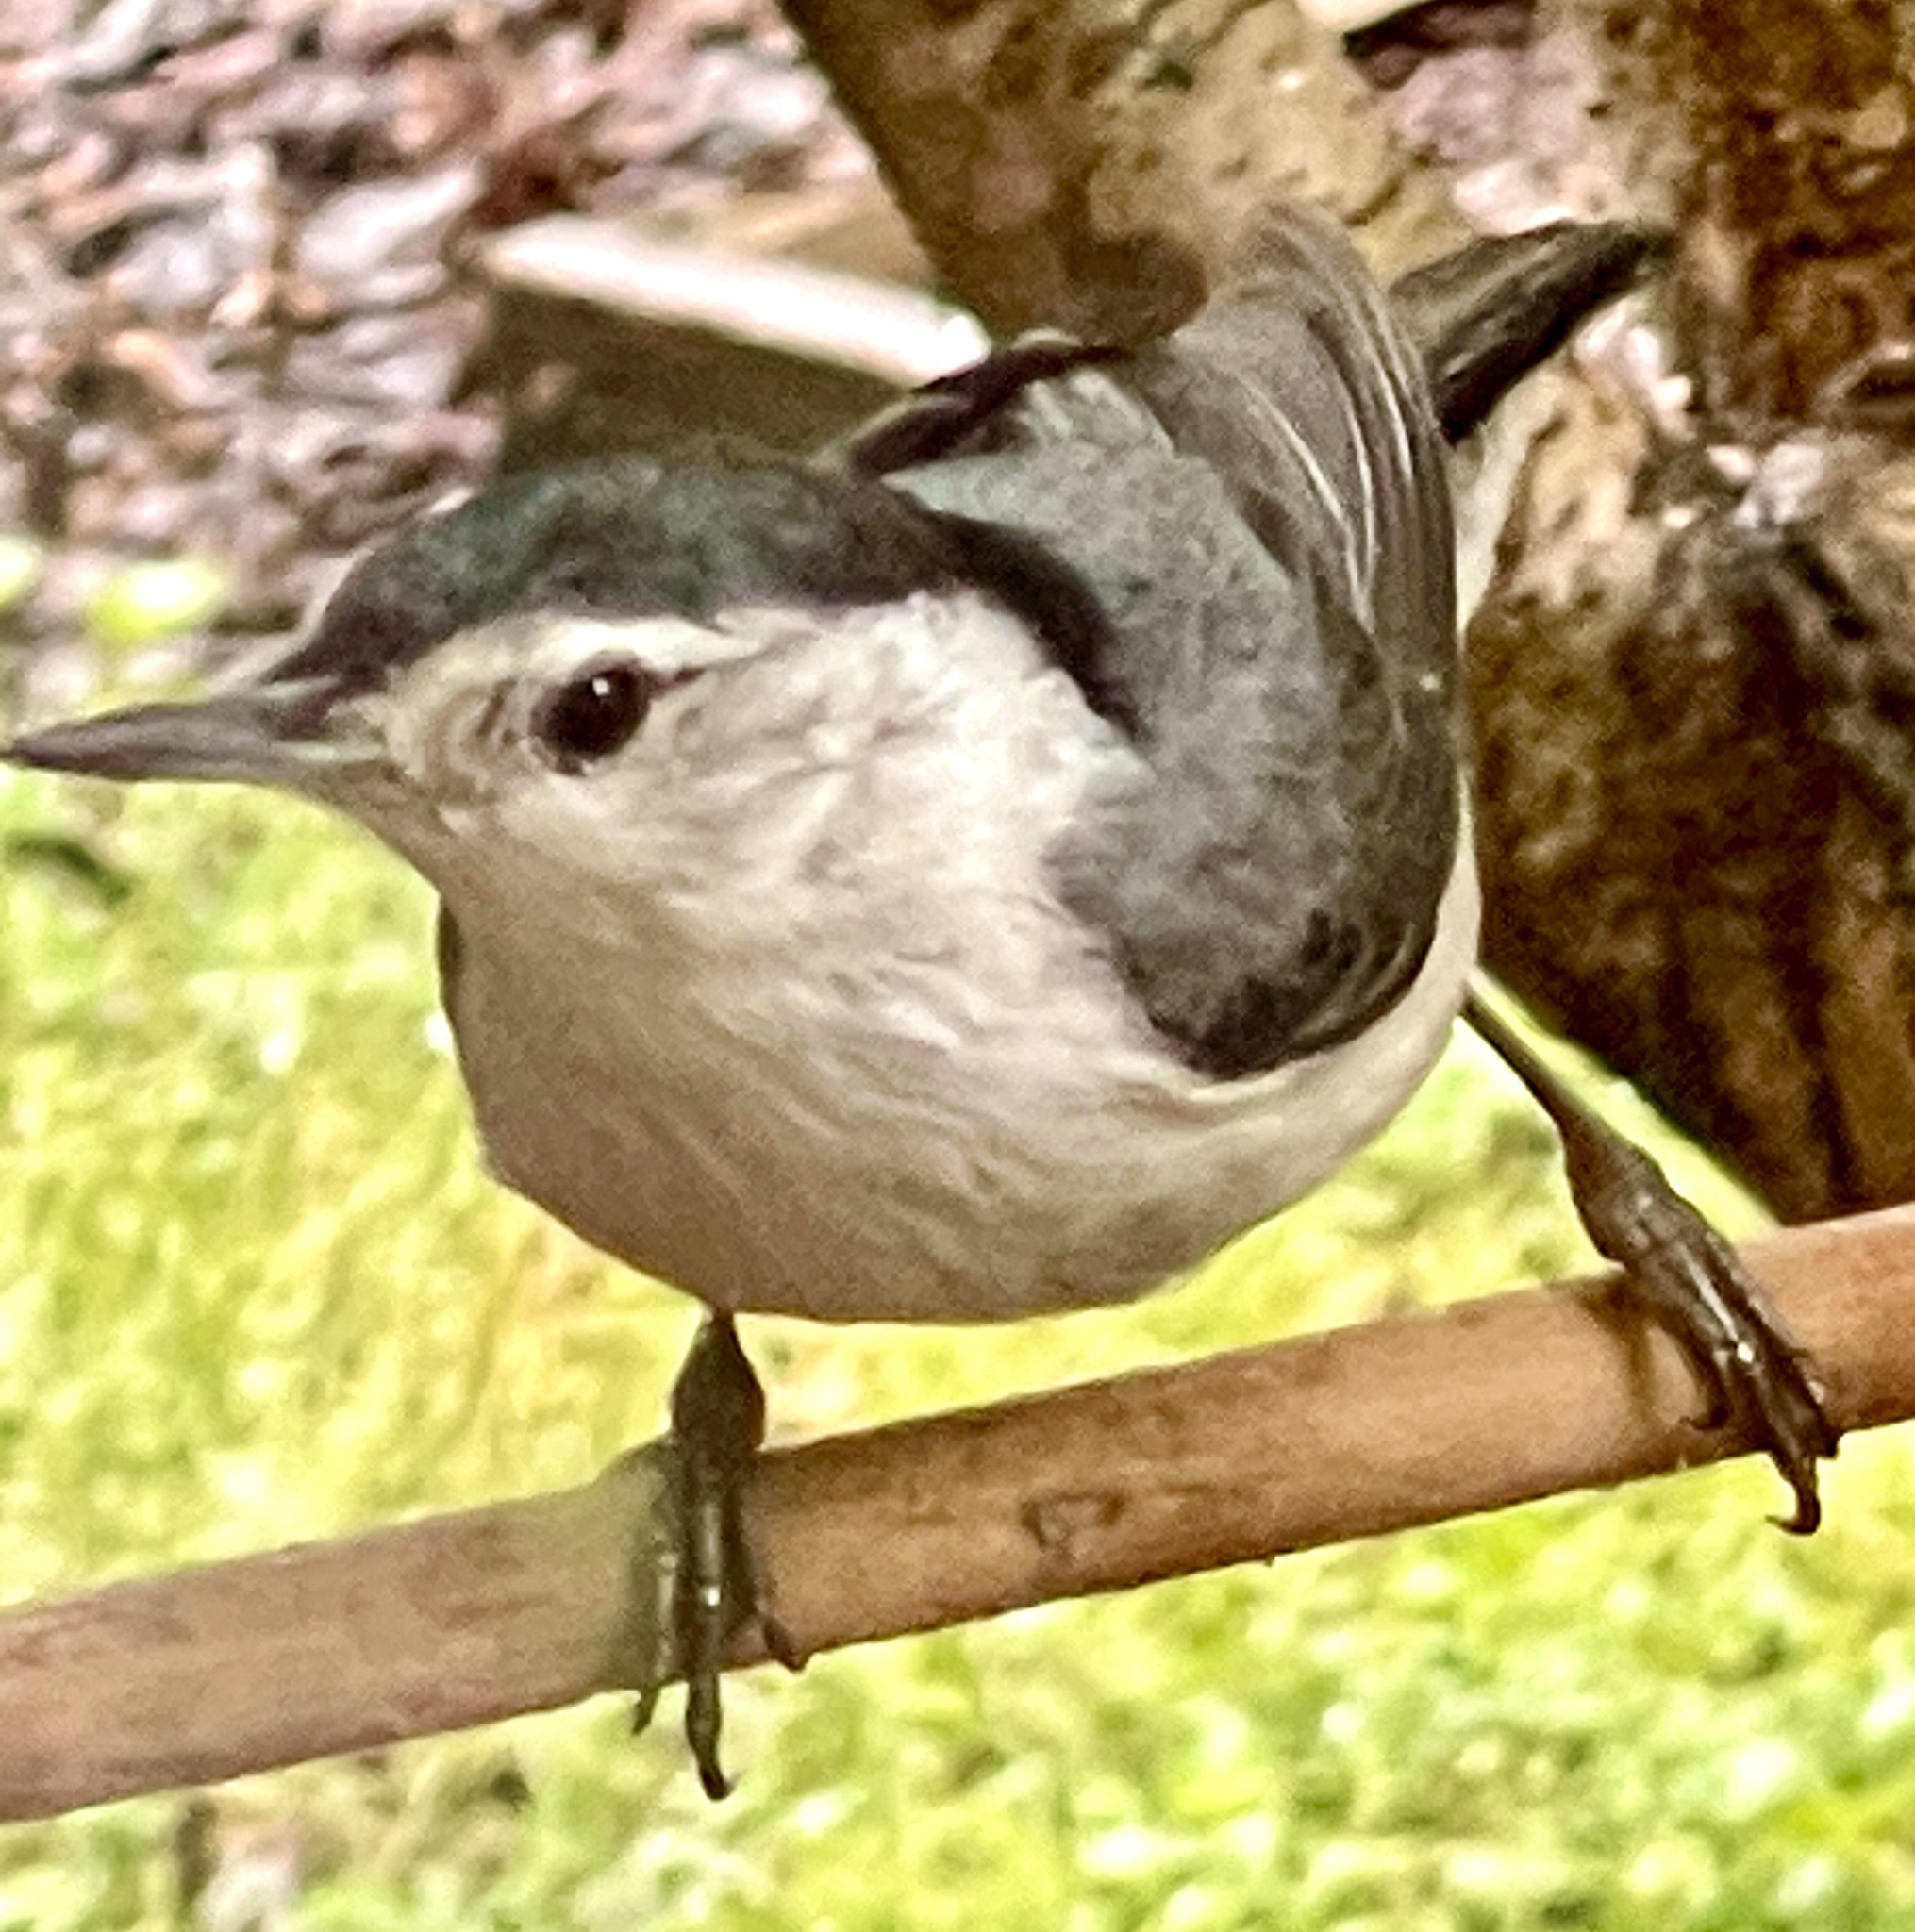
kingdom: Animalia
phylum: Chordata
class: Aves
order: Passeriformes
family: Sittidae
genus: Sitta
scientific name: Sitta carolinensis
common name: White-breasted nuthatch
